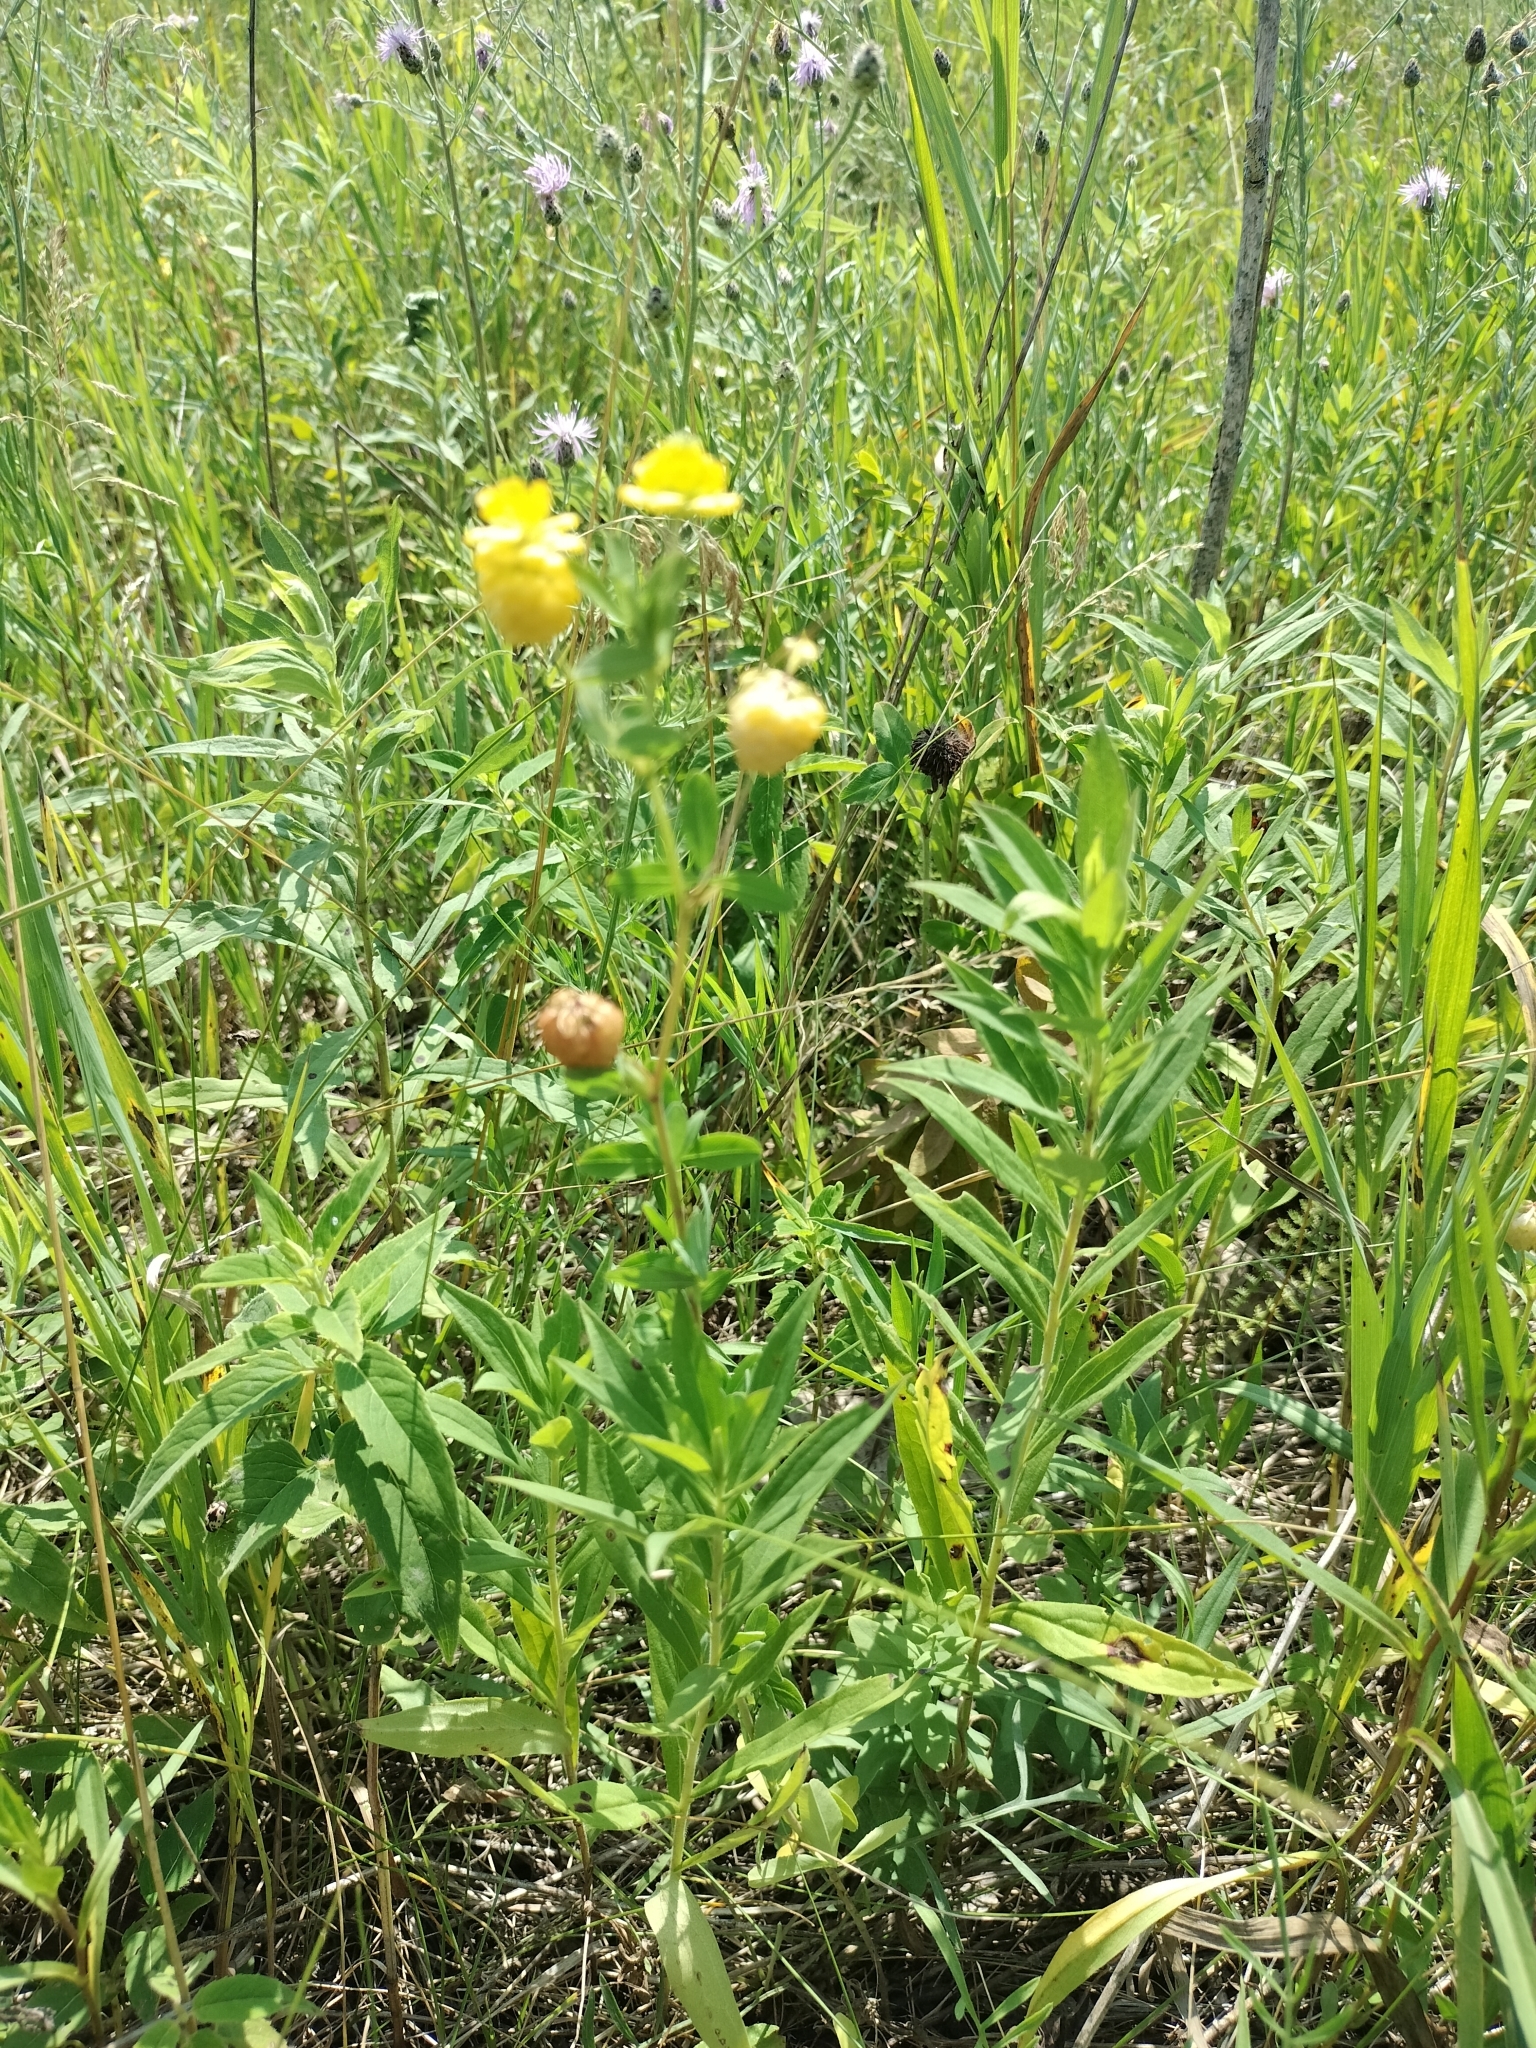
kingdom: Plantae
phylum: Tracheophyta
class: Magnoliopsida
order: Fabales
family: Fabaceae
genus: Trifolium
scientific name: Trifolium aureum
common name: Golden clover
